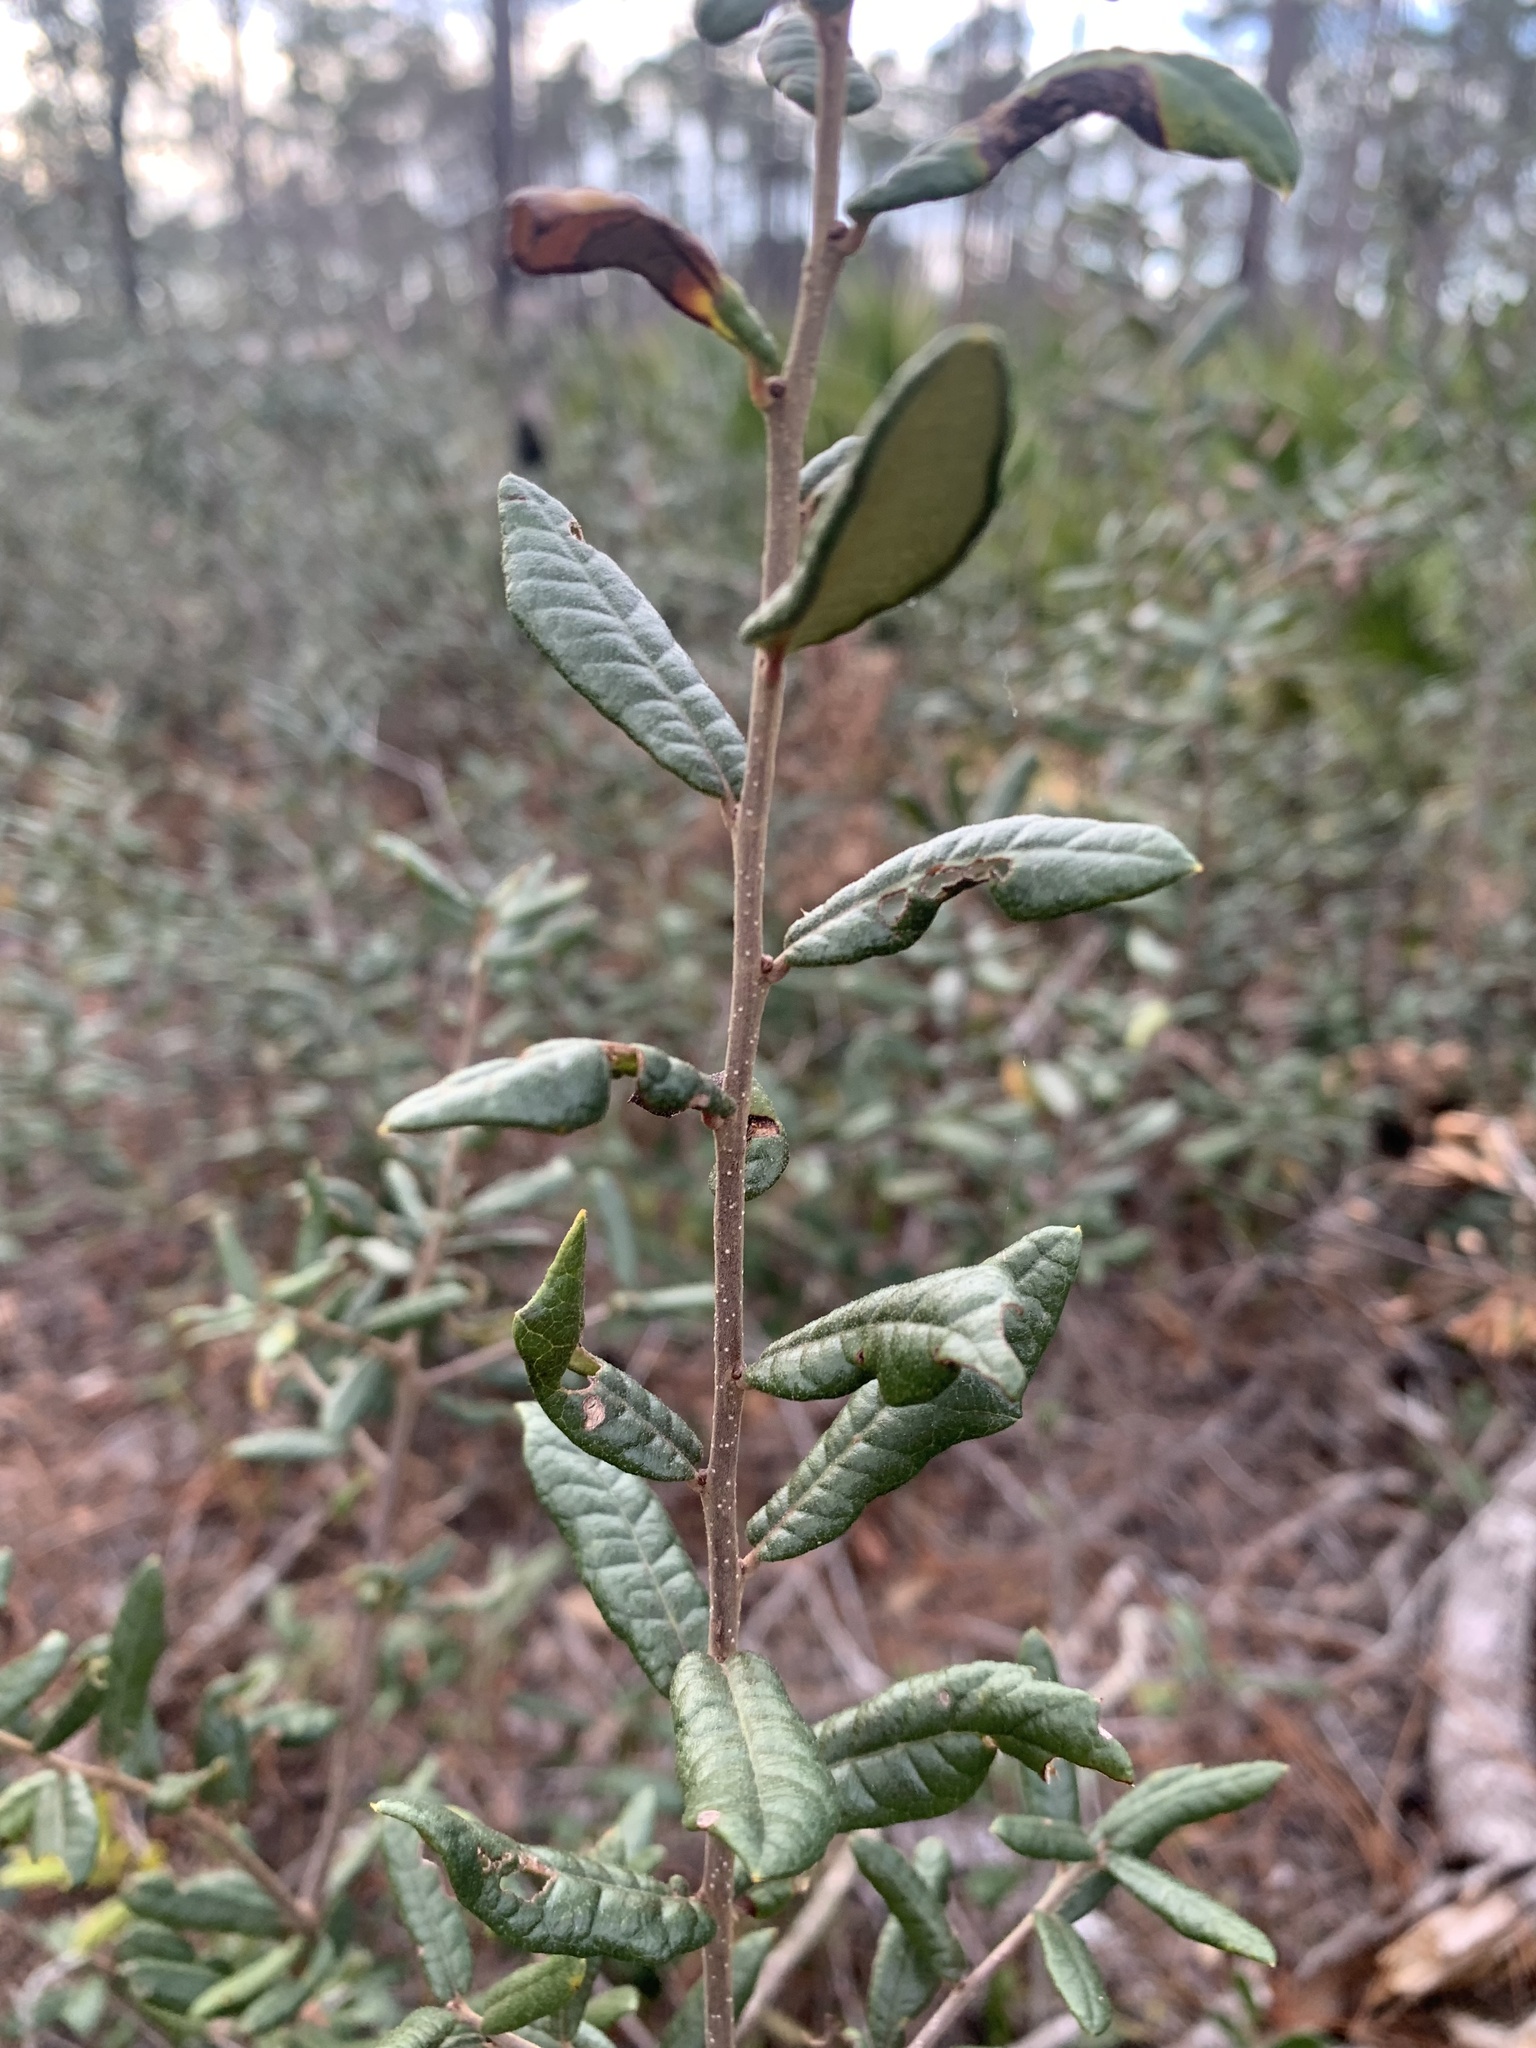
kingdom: Plantae
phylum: Tracheophyta
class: Magnoliopsida
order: Fagales
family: Fagaceae
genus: Quercus
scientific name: Quercus geminata
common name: Sand live oak
